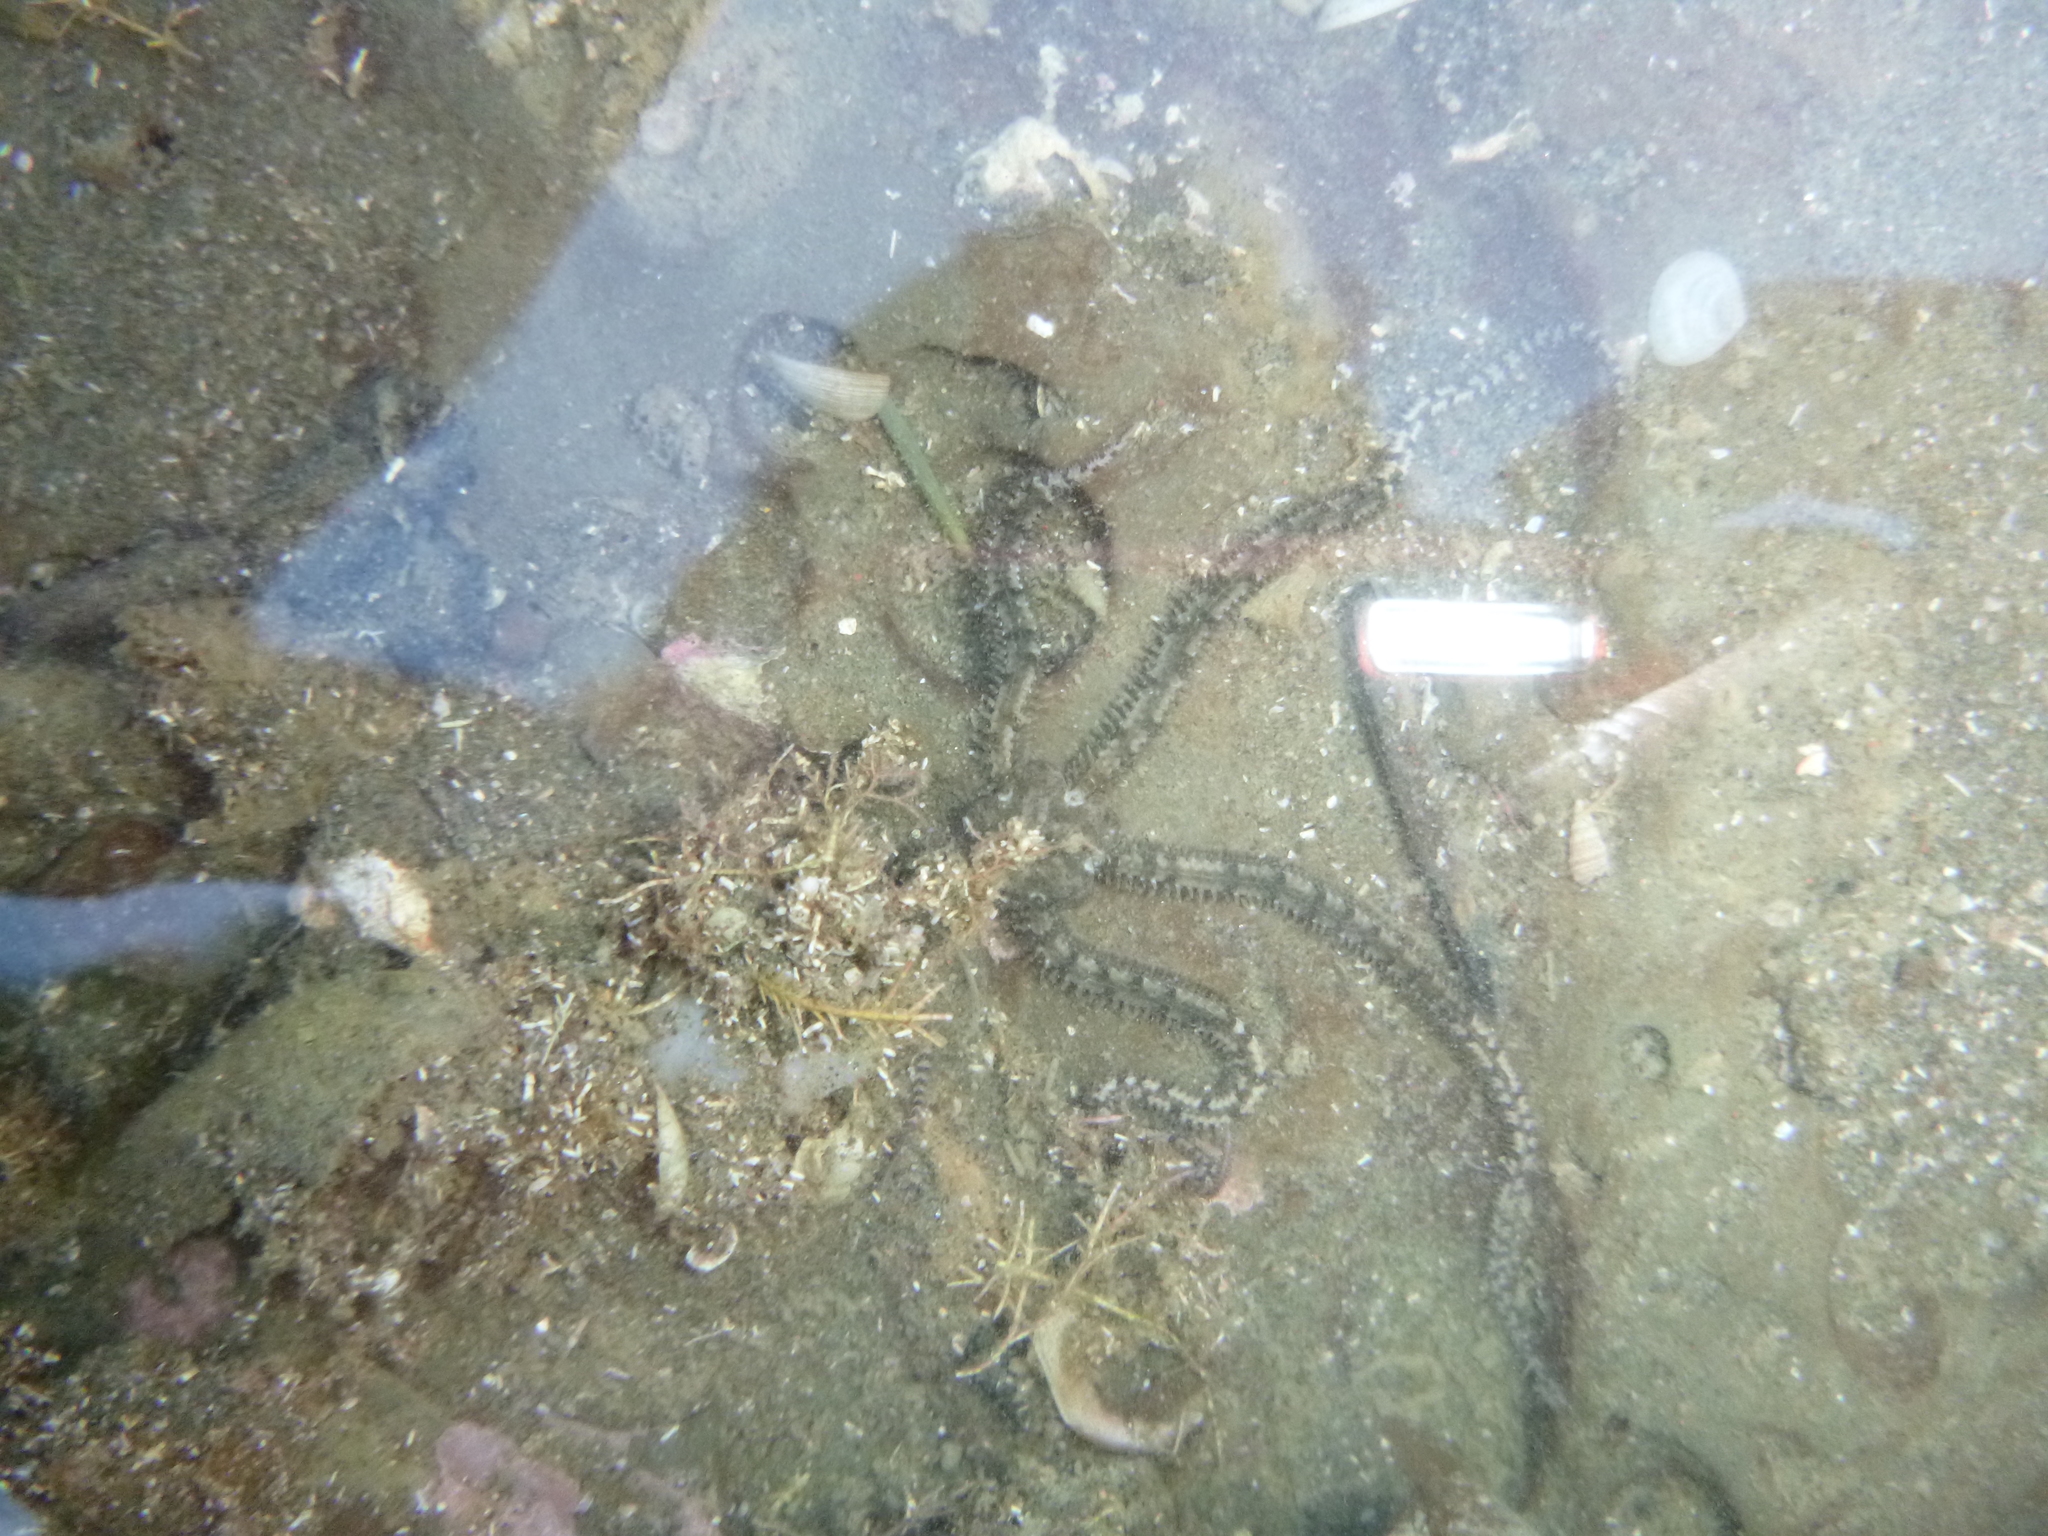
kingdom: Animalia
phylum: Echinodermata
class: Ophiuroidea
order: Amphilepidida
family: Ophiactidae
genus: Ophiactis
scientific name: Ophiactis resiliens
